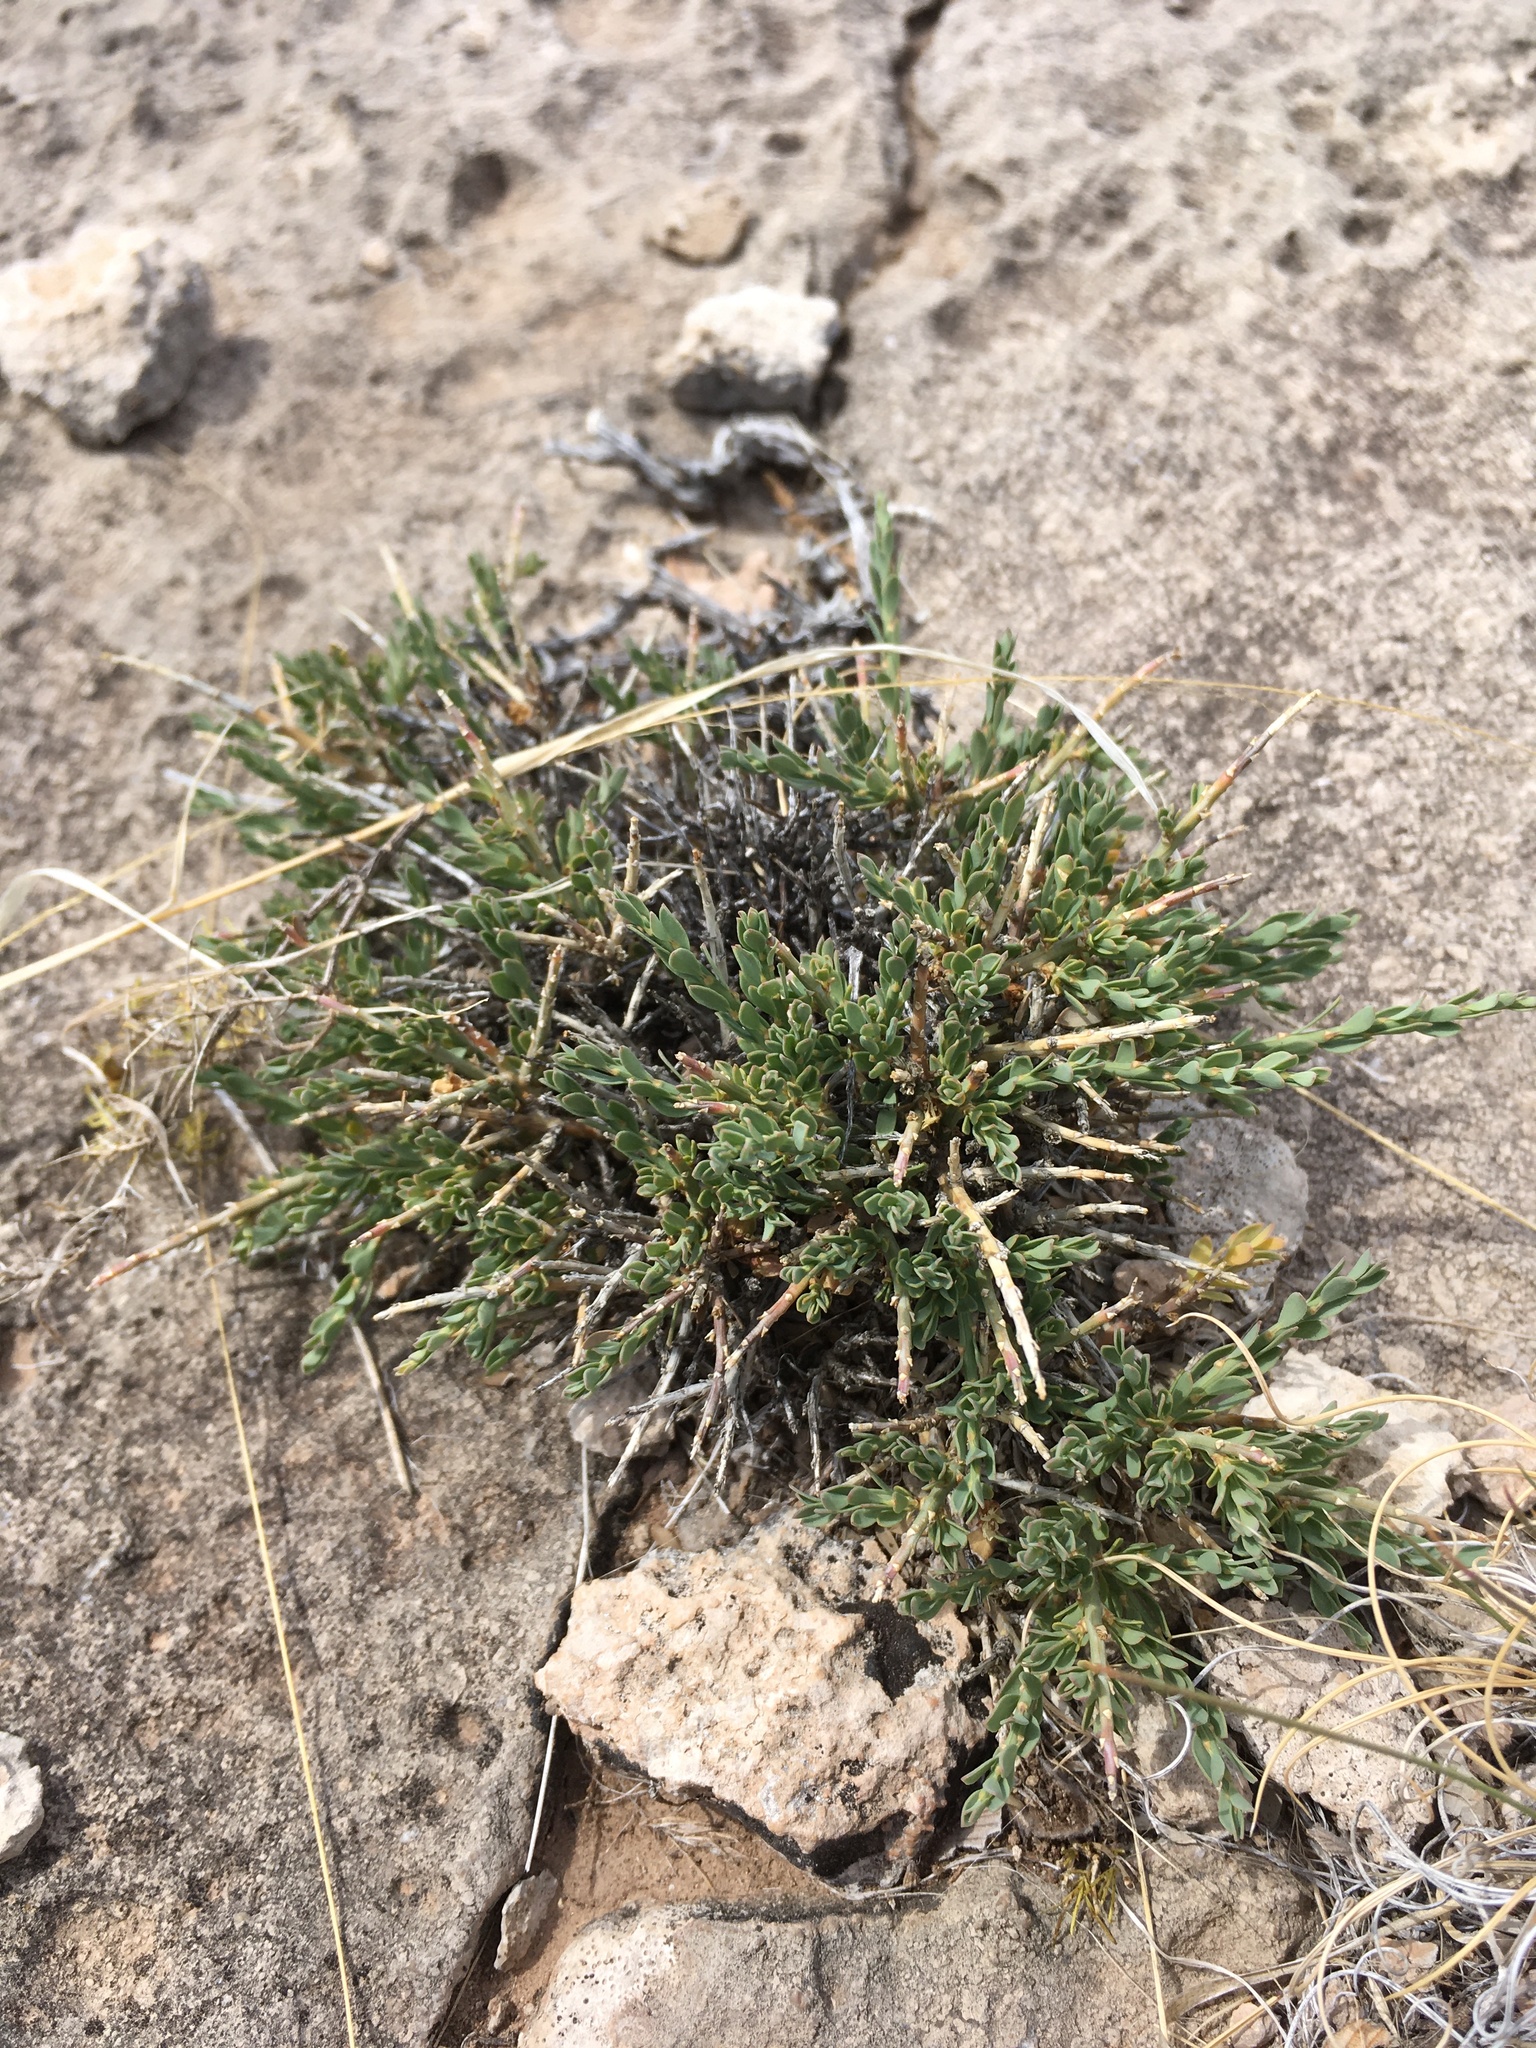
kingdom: Plantae
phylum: Tracheophyta
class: Magnoliopsida
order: Crossosomatales
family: Crossosomataceae
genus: Glossopetalon
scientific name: Glossopetalon spinescens
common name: Spring greasebush
